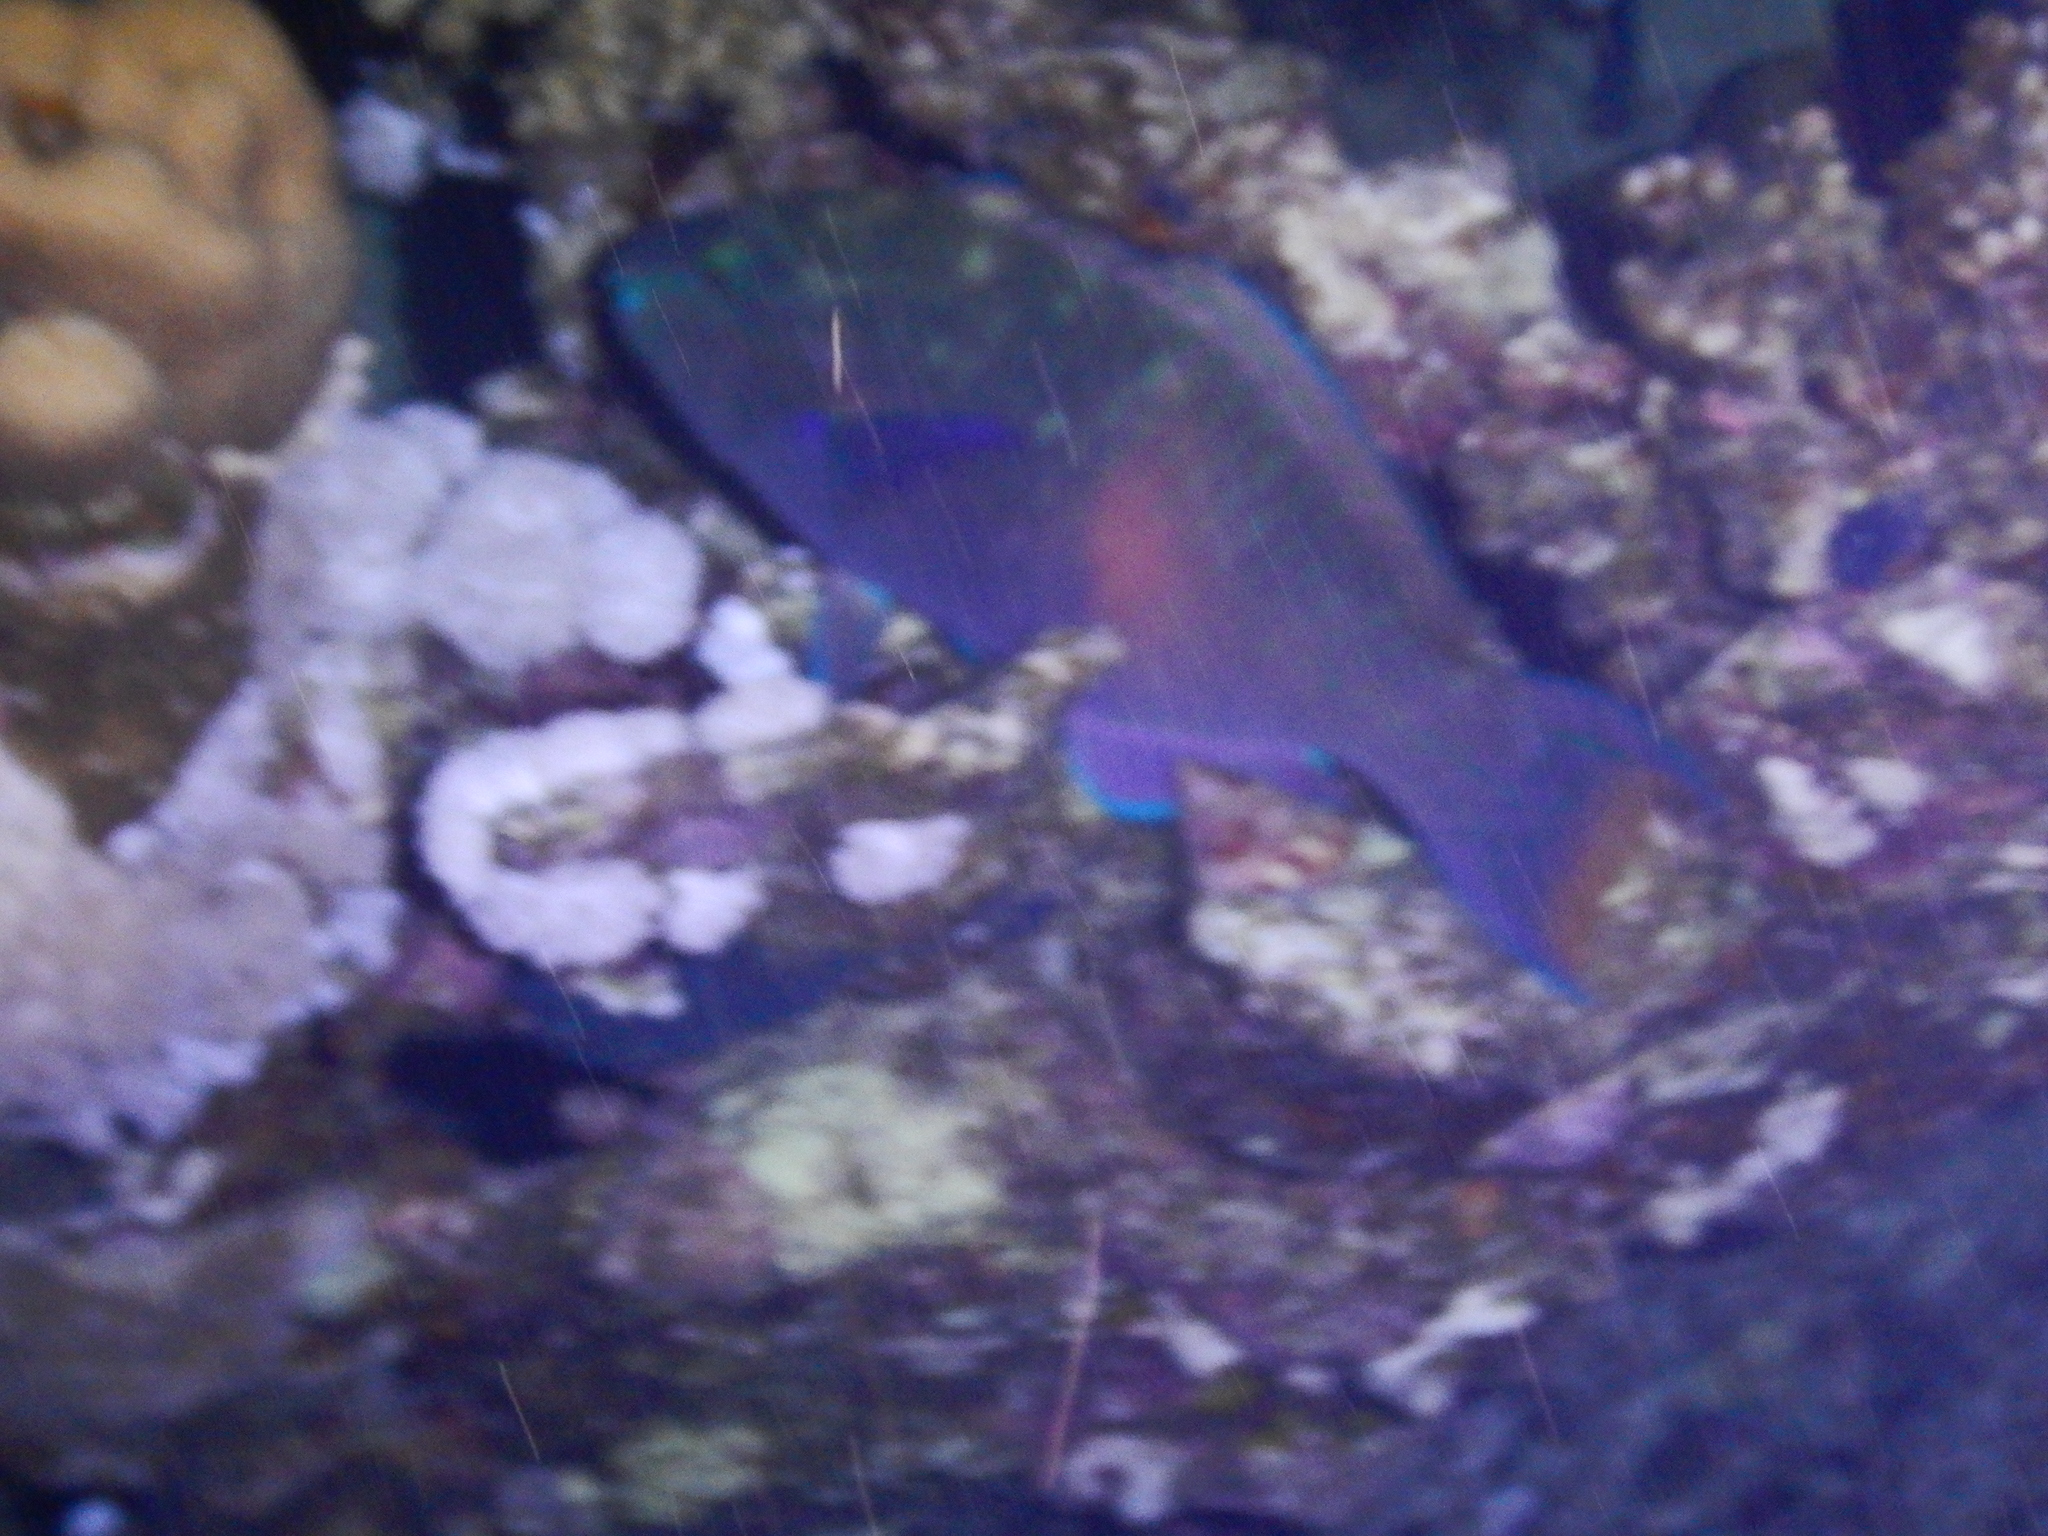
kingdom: Animalia
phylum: Chordata
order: Perciformes
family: Scaridae
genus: Scarus
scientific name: Scarus fuscopurpureus
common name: Purple-brown parrotfish
